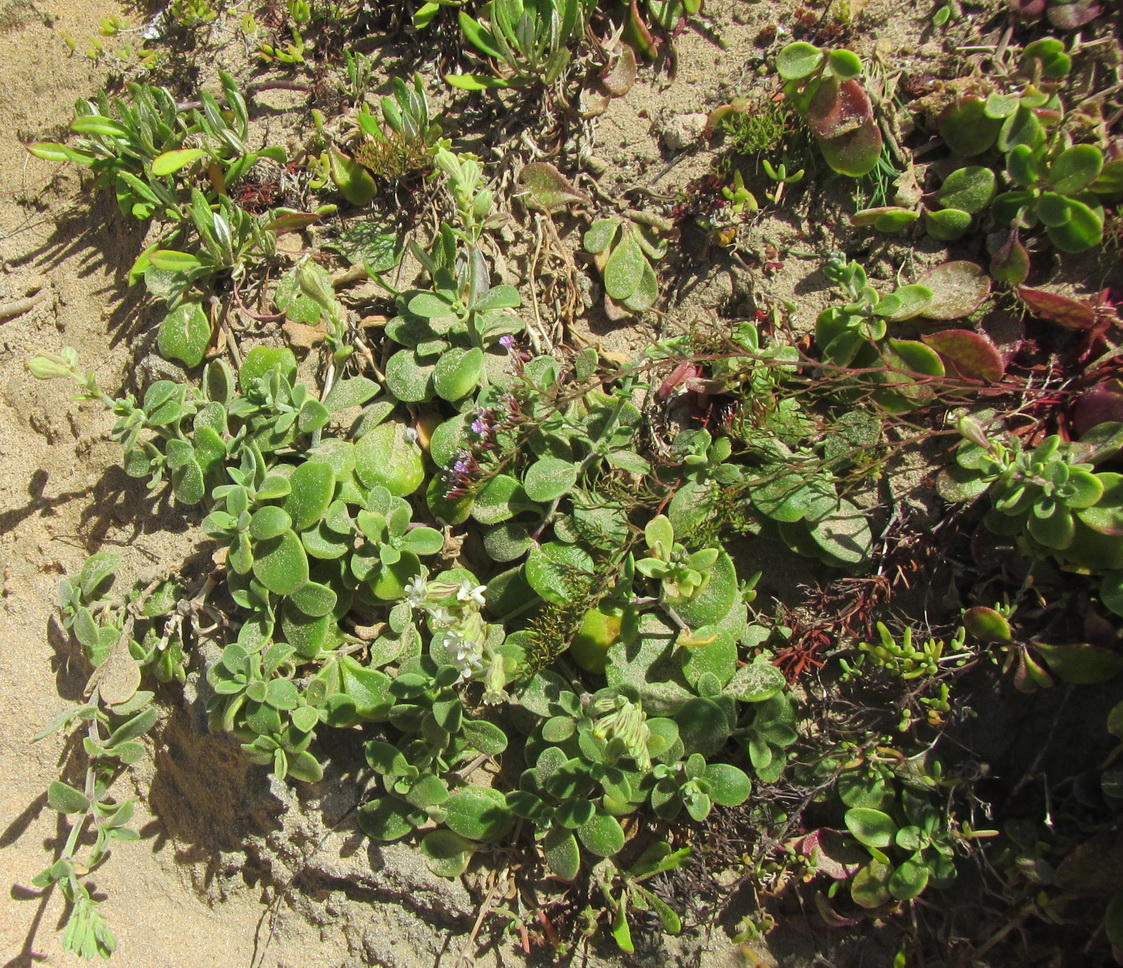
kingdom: Plantae
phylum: Tracheophyta
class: Magnoliopsida
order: Caryophyllales
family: Caryophyllaceae
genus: Silene
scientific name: Silene crassifolia
